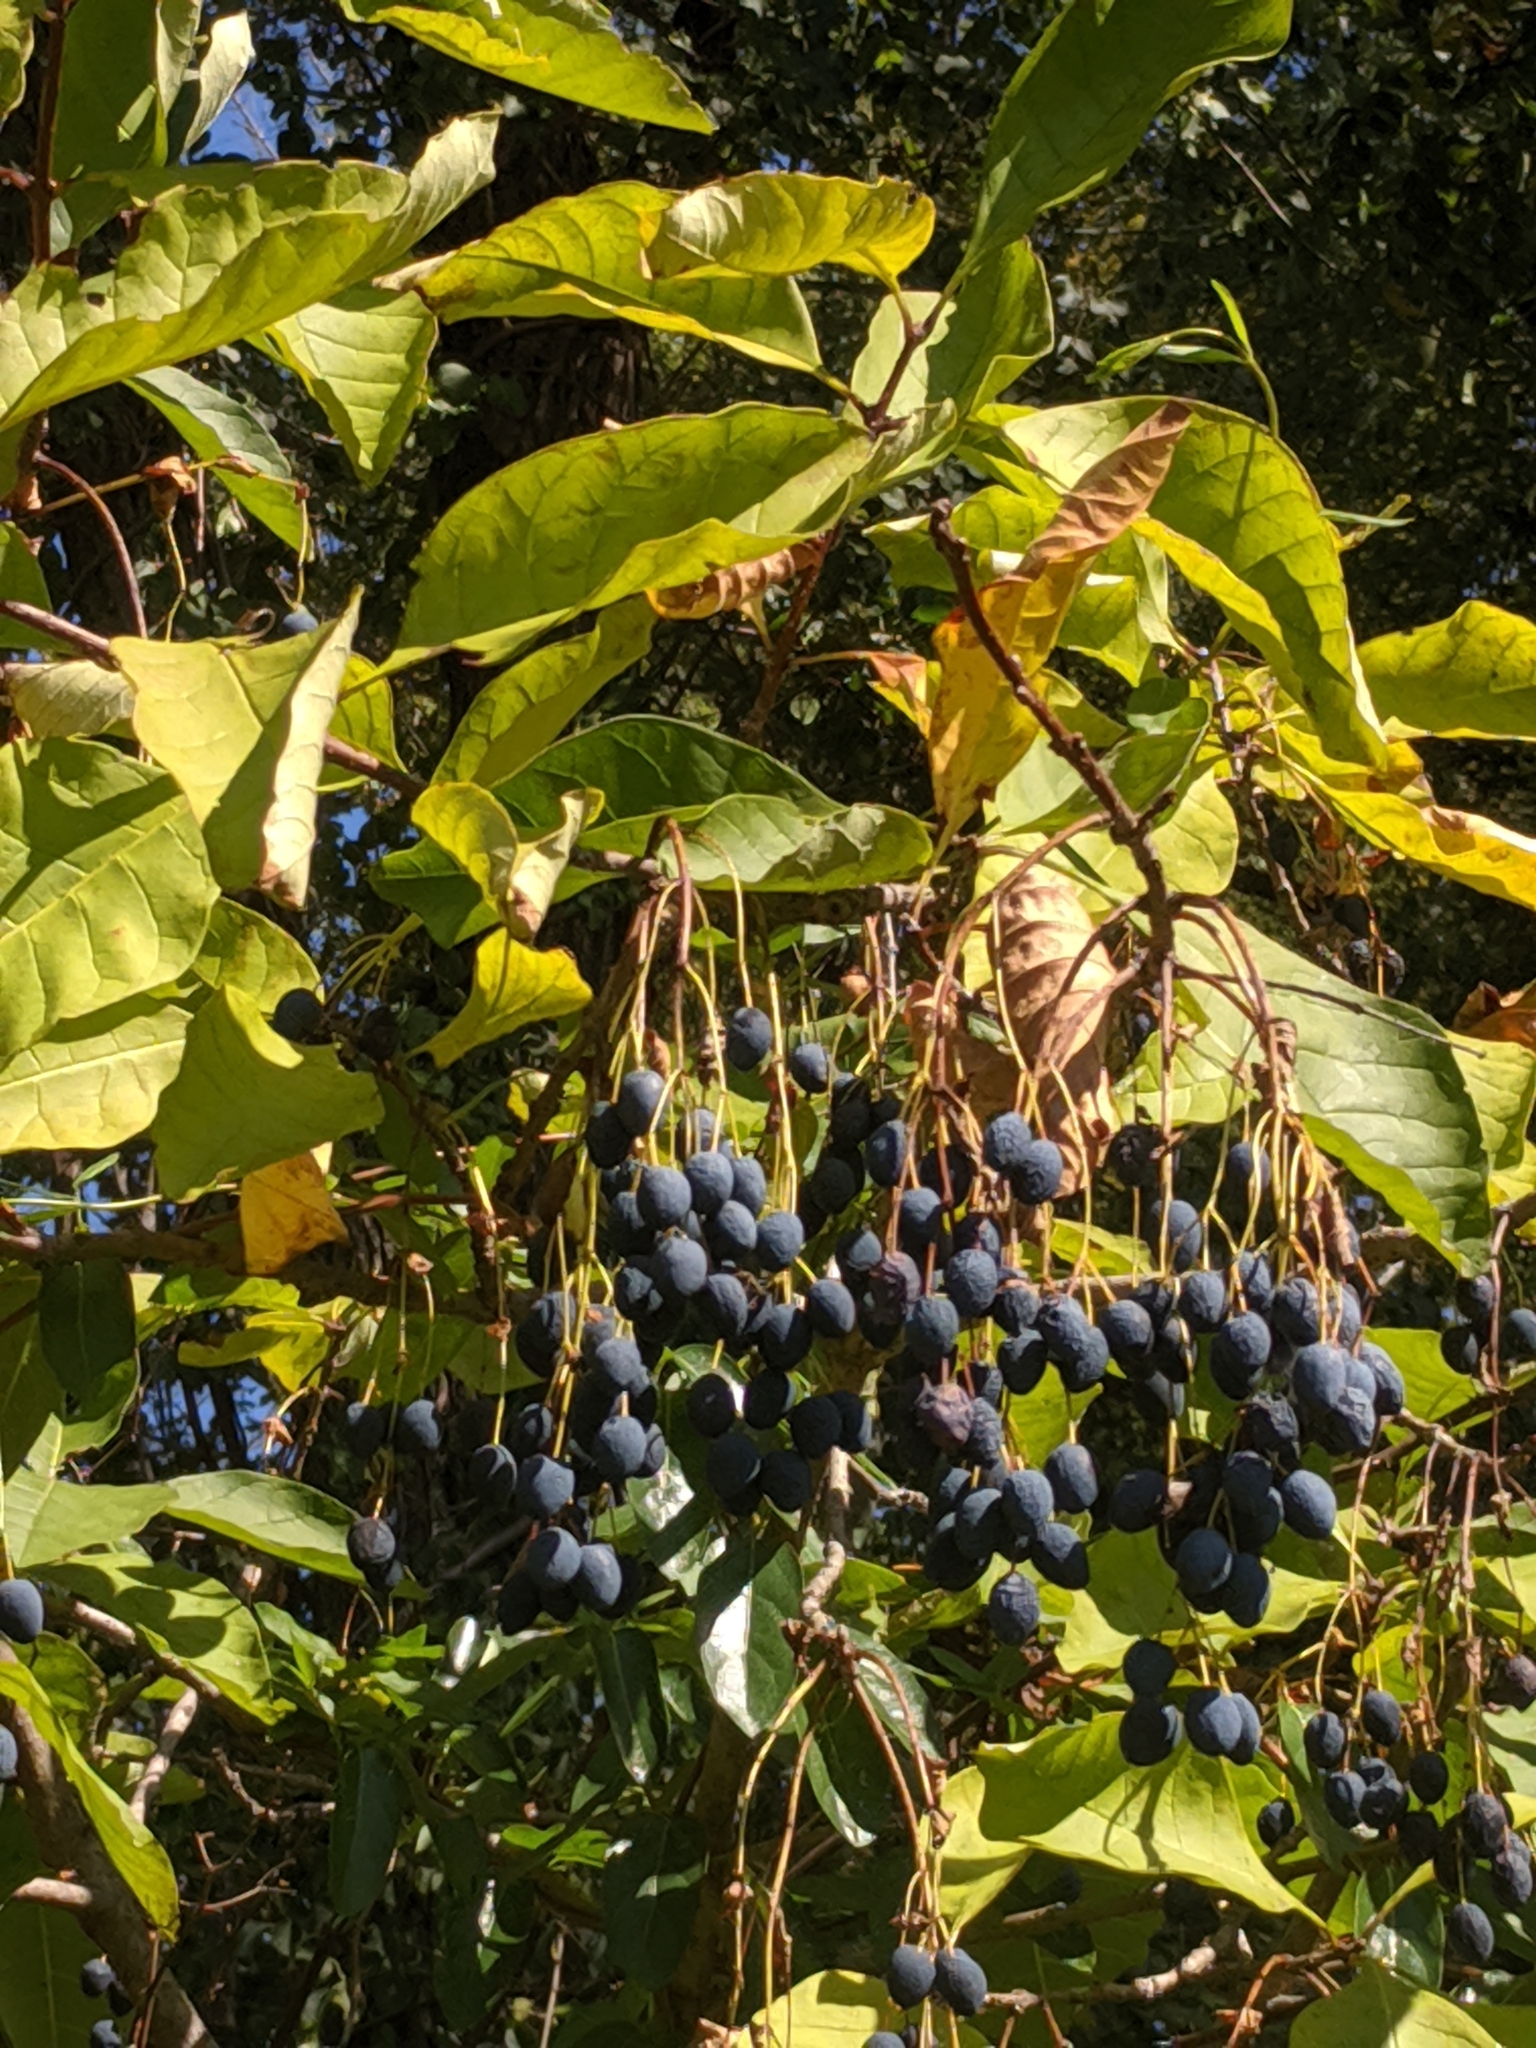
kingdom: Plantae
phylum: Tracheophyta
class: Magnoliopsida
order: Lamiales
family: Oleaceae
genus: Chionanthus
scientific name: Chionanthus virginicus
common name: American fringetree
